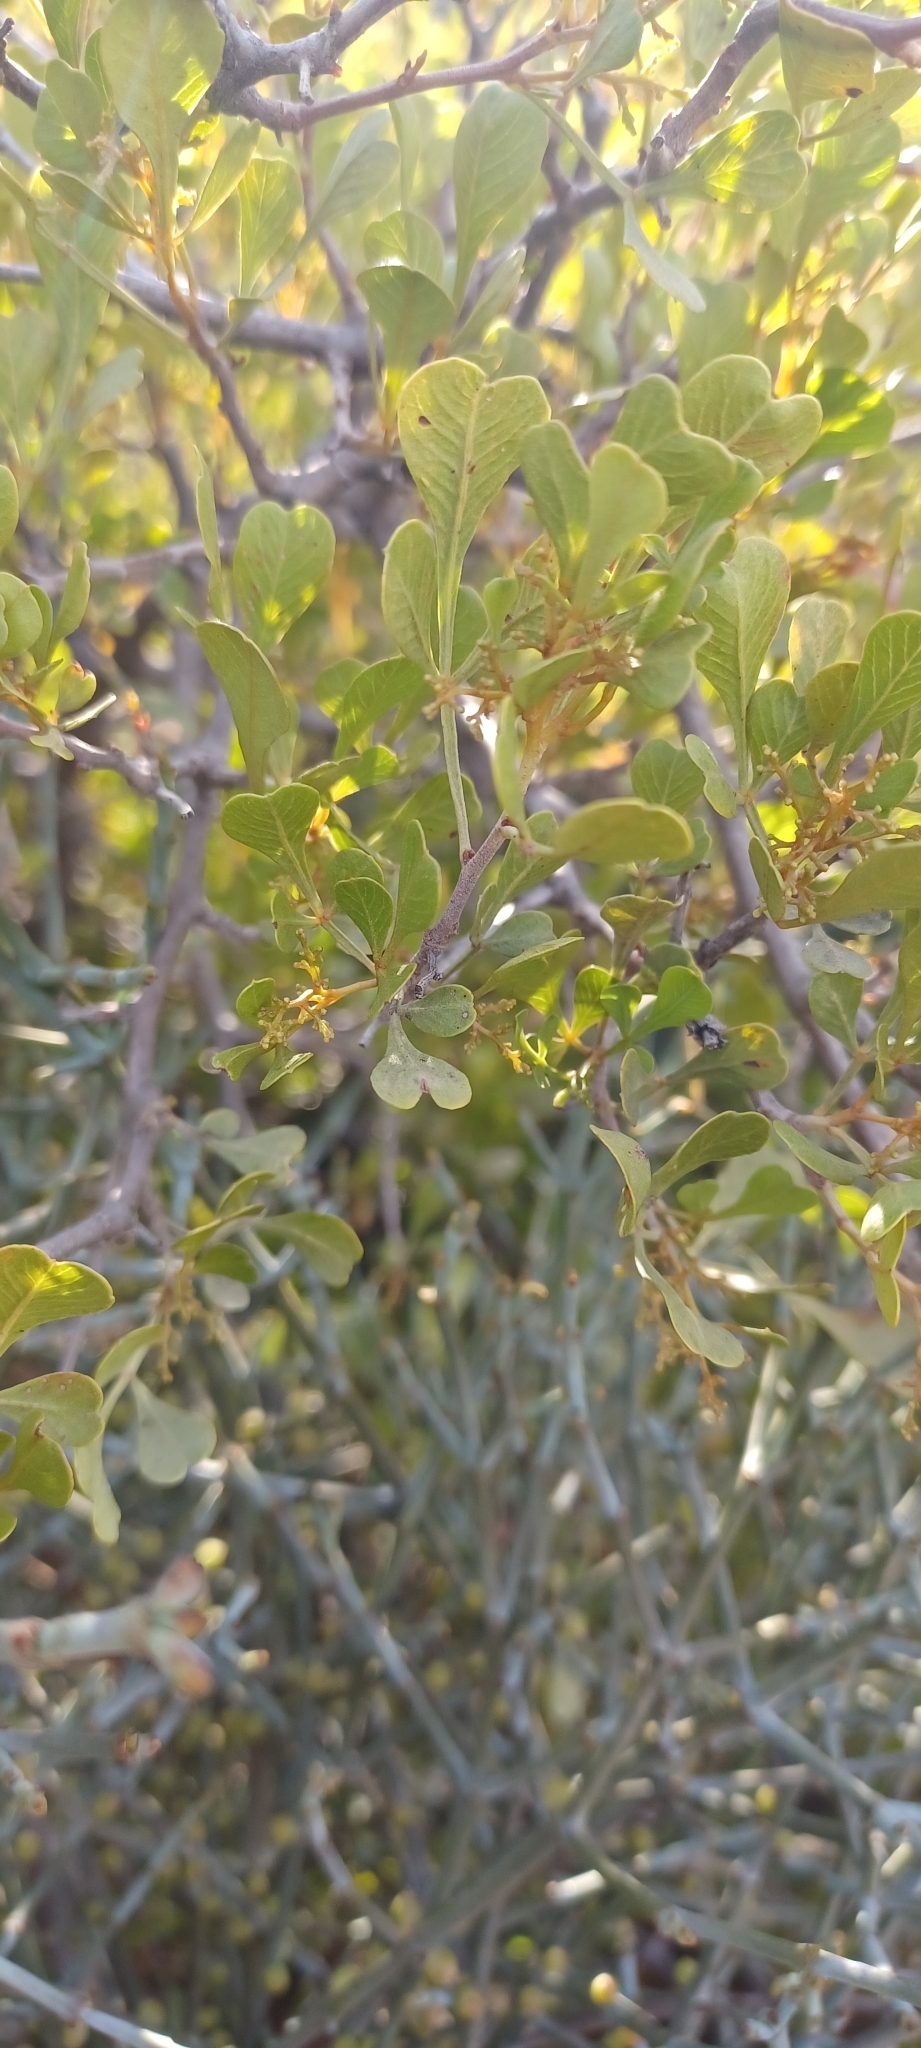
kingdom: Plantae
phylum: Tracheophyta
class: Magnoliopsida
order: Sapindales
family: Anacardiaceae
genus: Searsia
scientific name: Searsia undulata
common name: Namaqua kunibush
